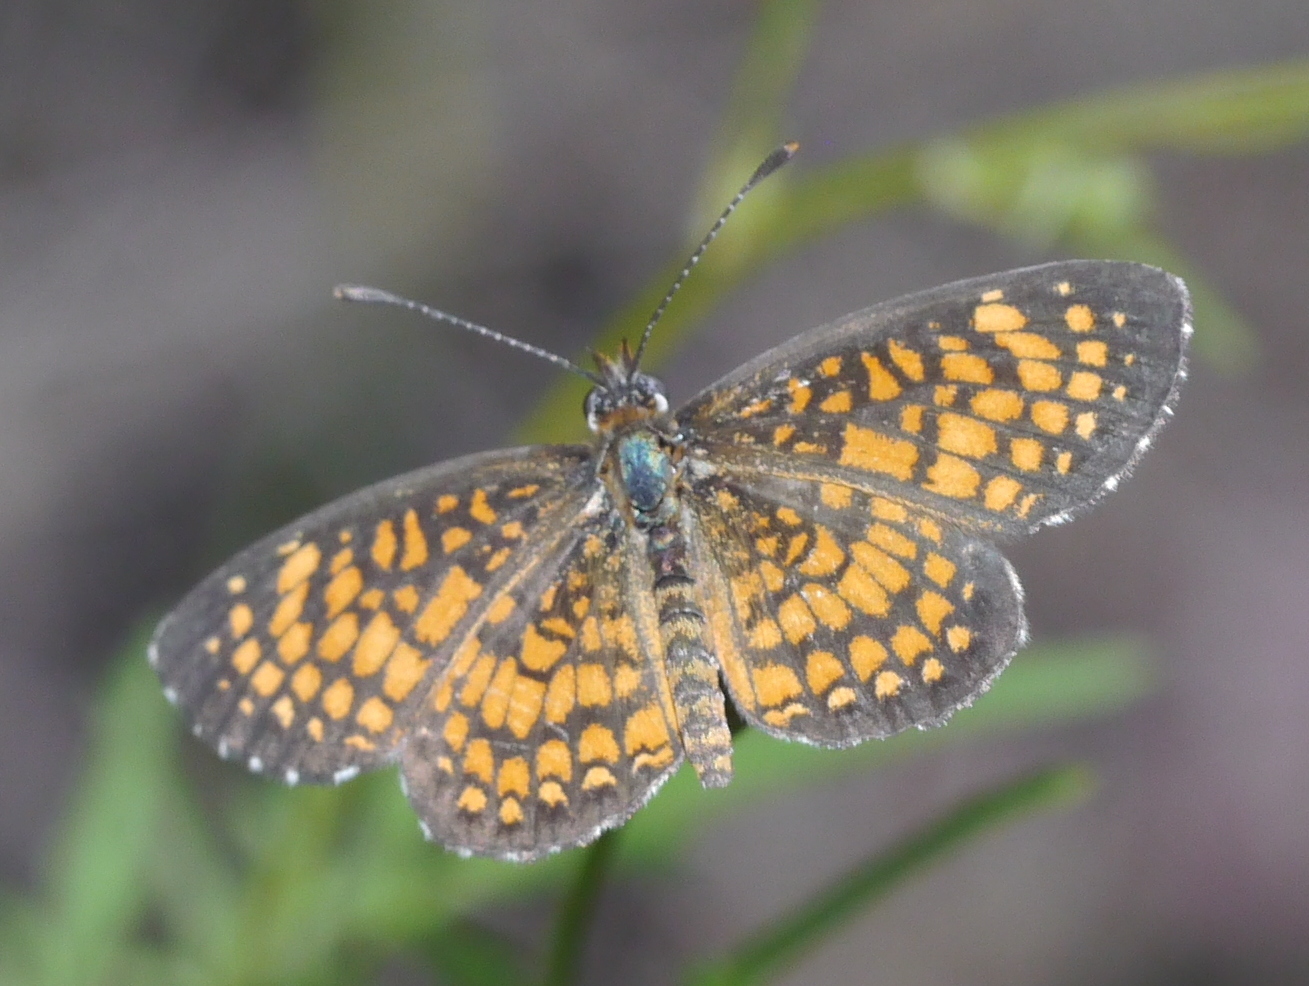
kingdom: Animalia
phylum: Arthropoda
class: Insecta
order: Lepidoptera
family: Nymphalidae
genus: Texola
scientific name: Texola
